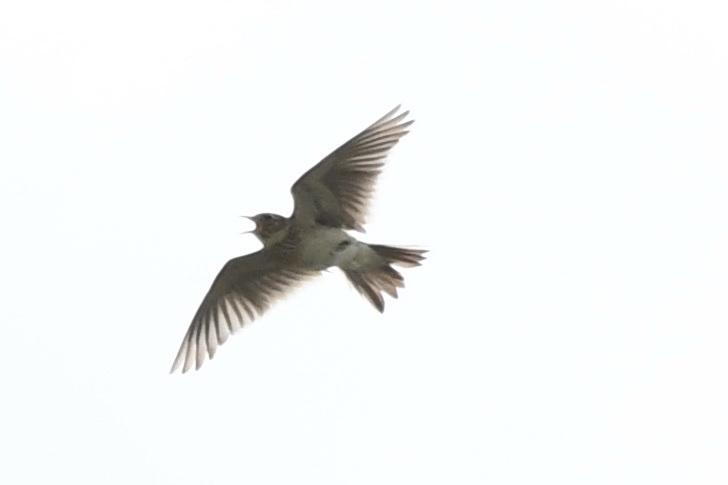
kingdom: Animalia
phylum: Chordata
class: Aves
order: Passeriformes
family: Alaudidae
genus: Alauda
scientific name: Alauda arvensis
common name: Eurasian skylark
